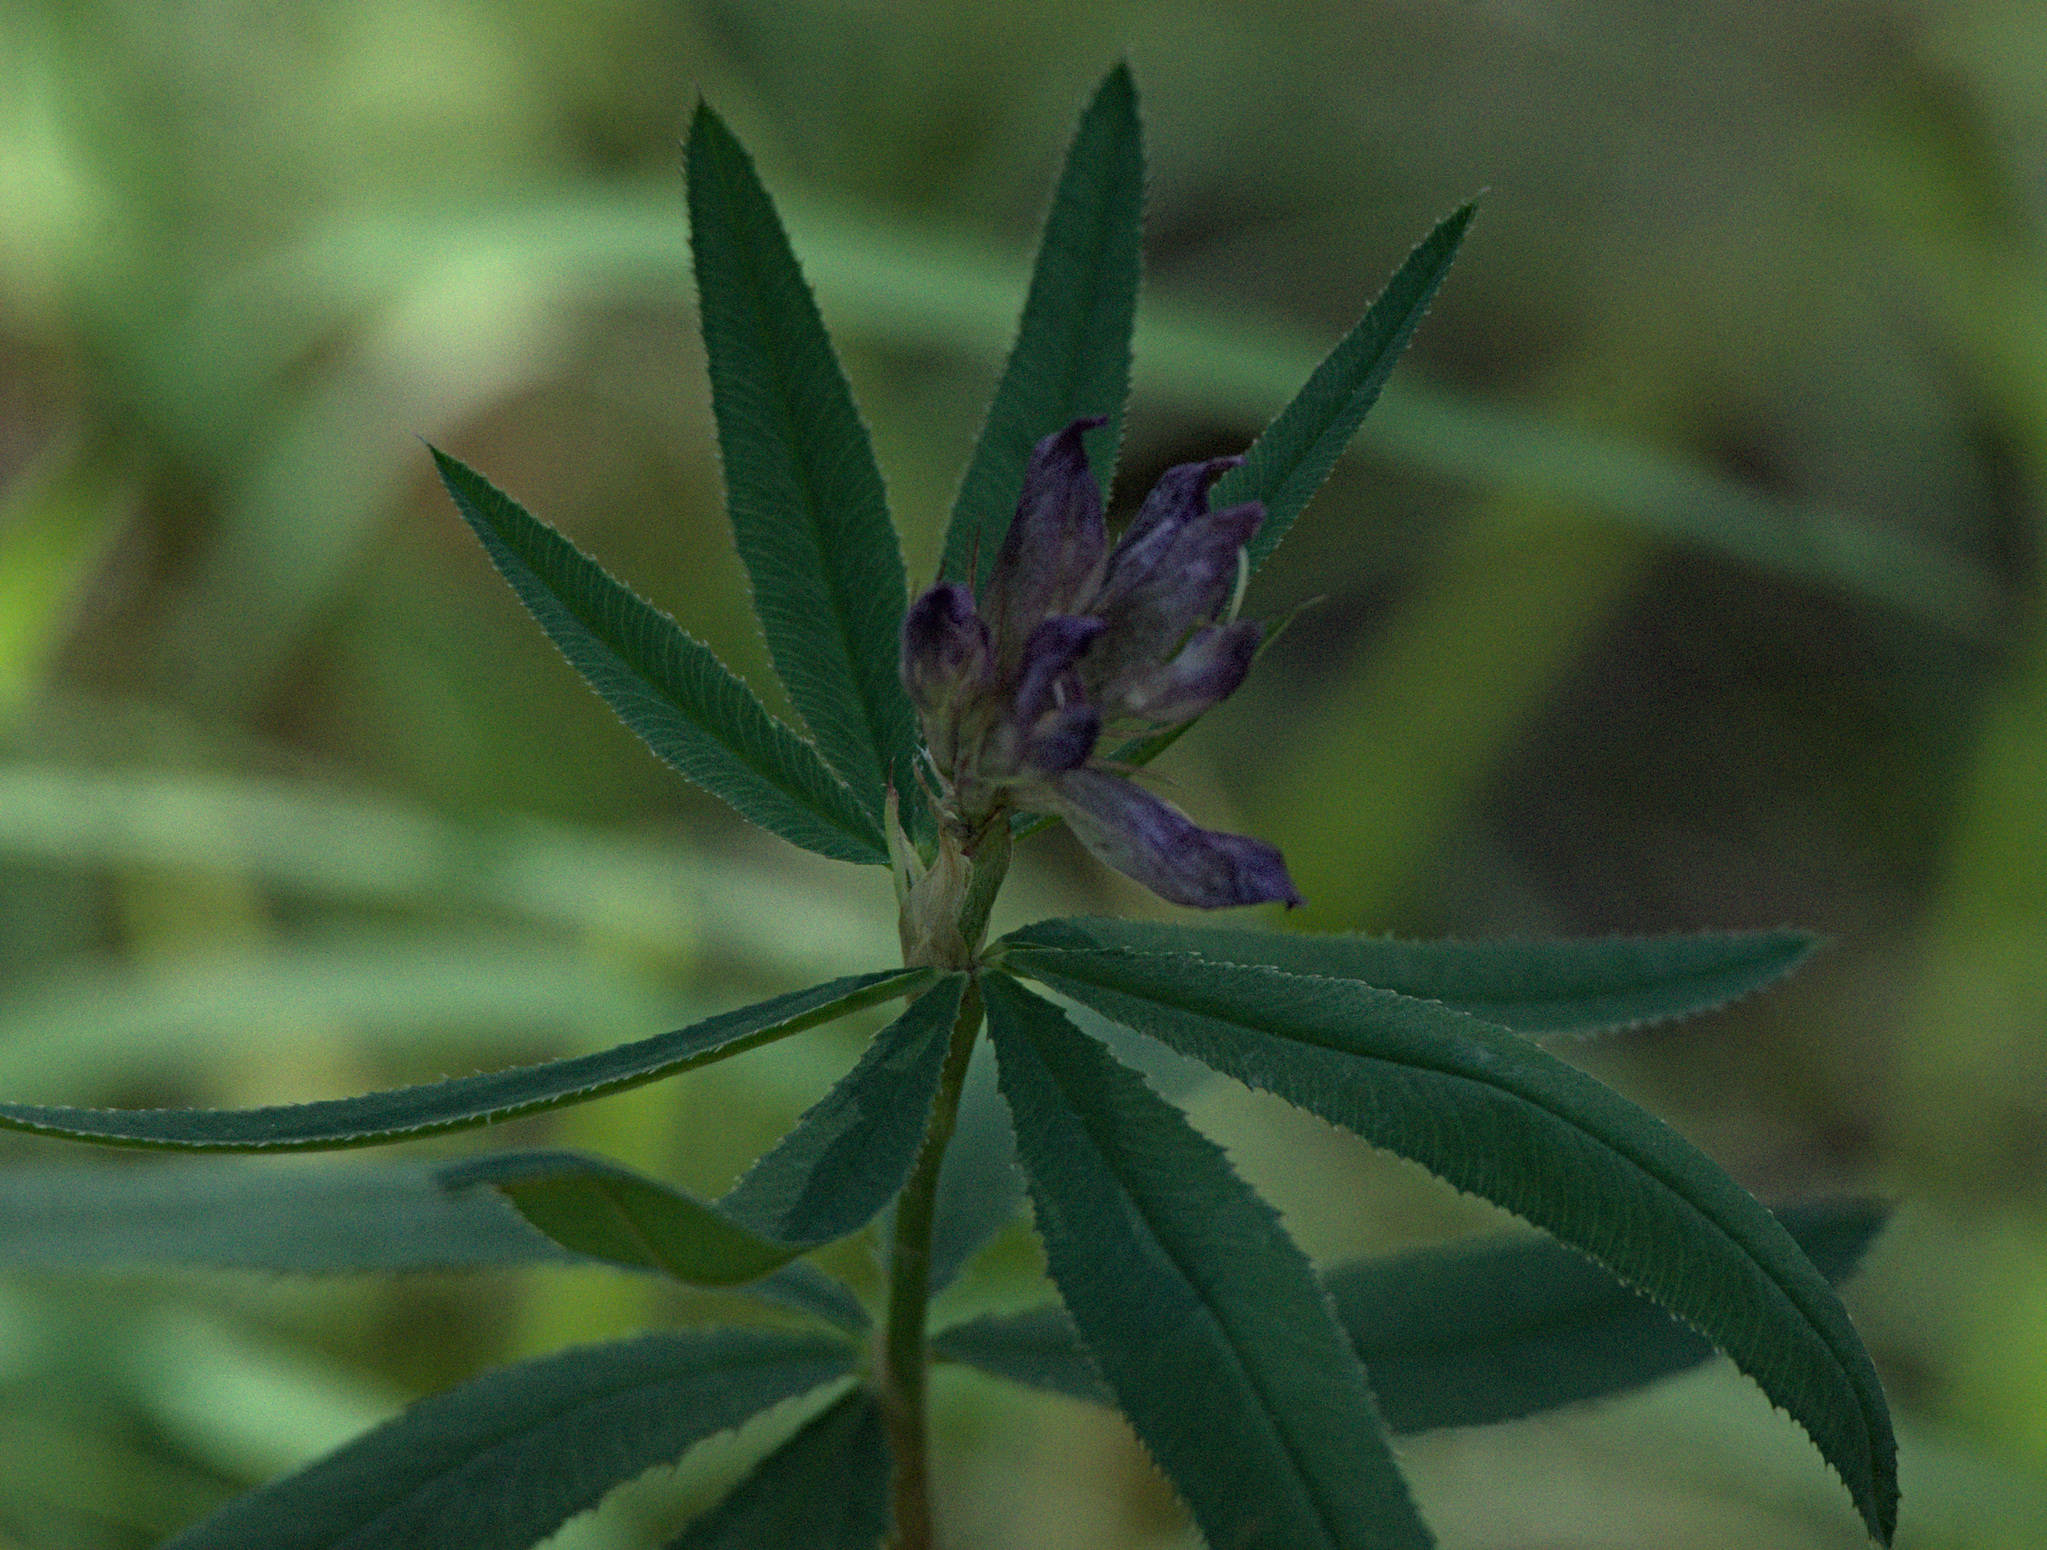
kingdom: Plantae
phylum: Tracheophyta
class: Magnoliopsida
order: Fabales
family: Fabaceae
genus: Trifolium
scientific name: Trifolium lupinaster
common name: Lupine clover
